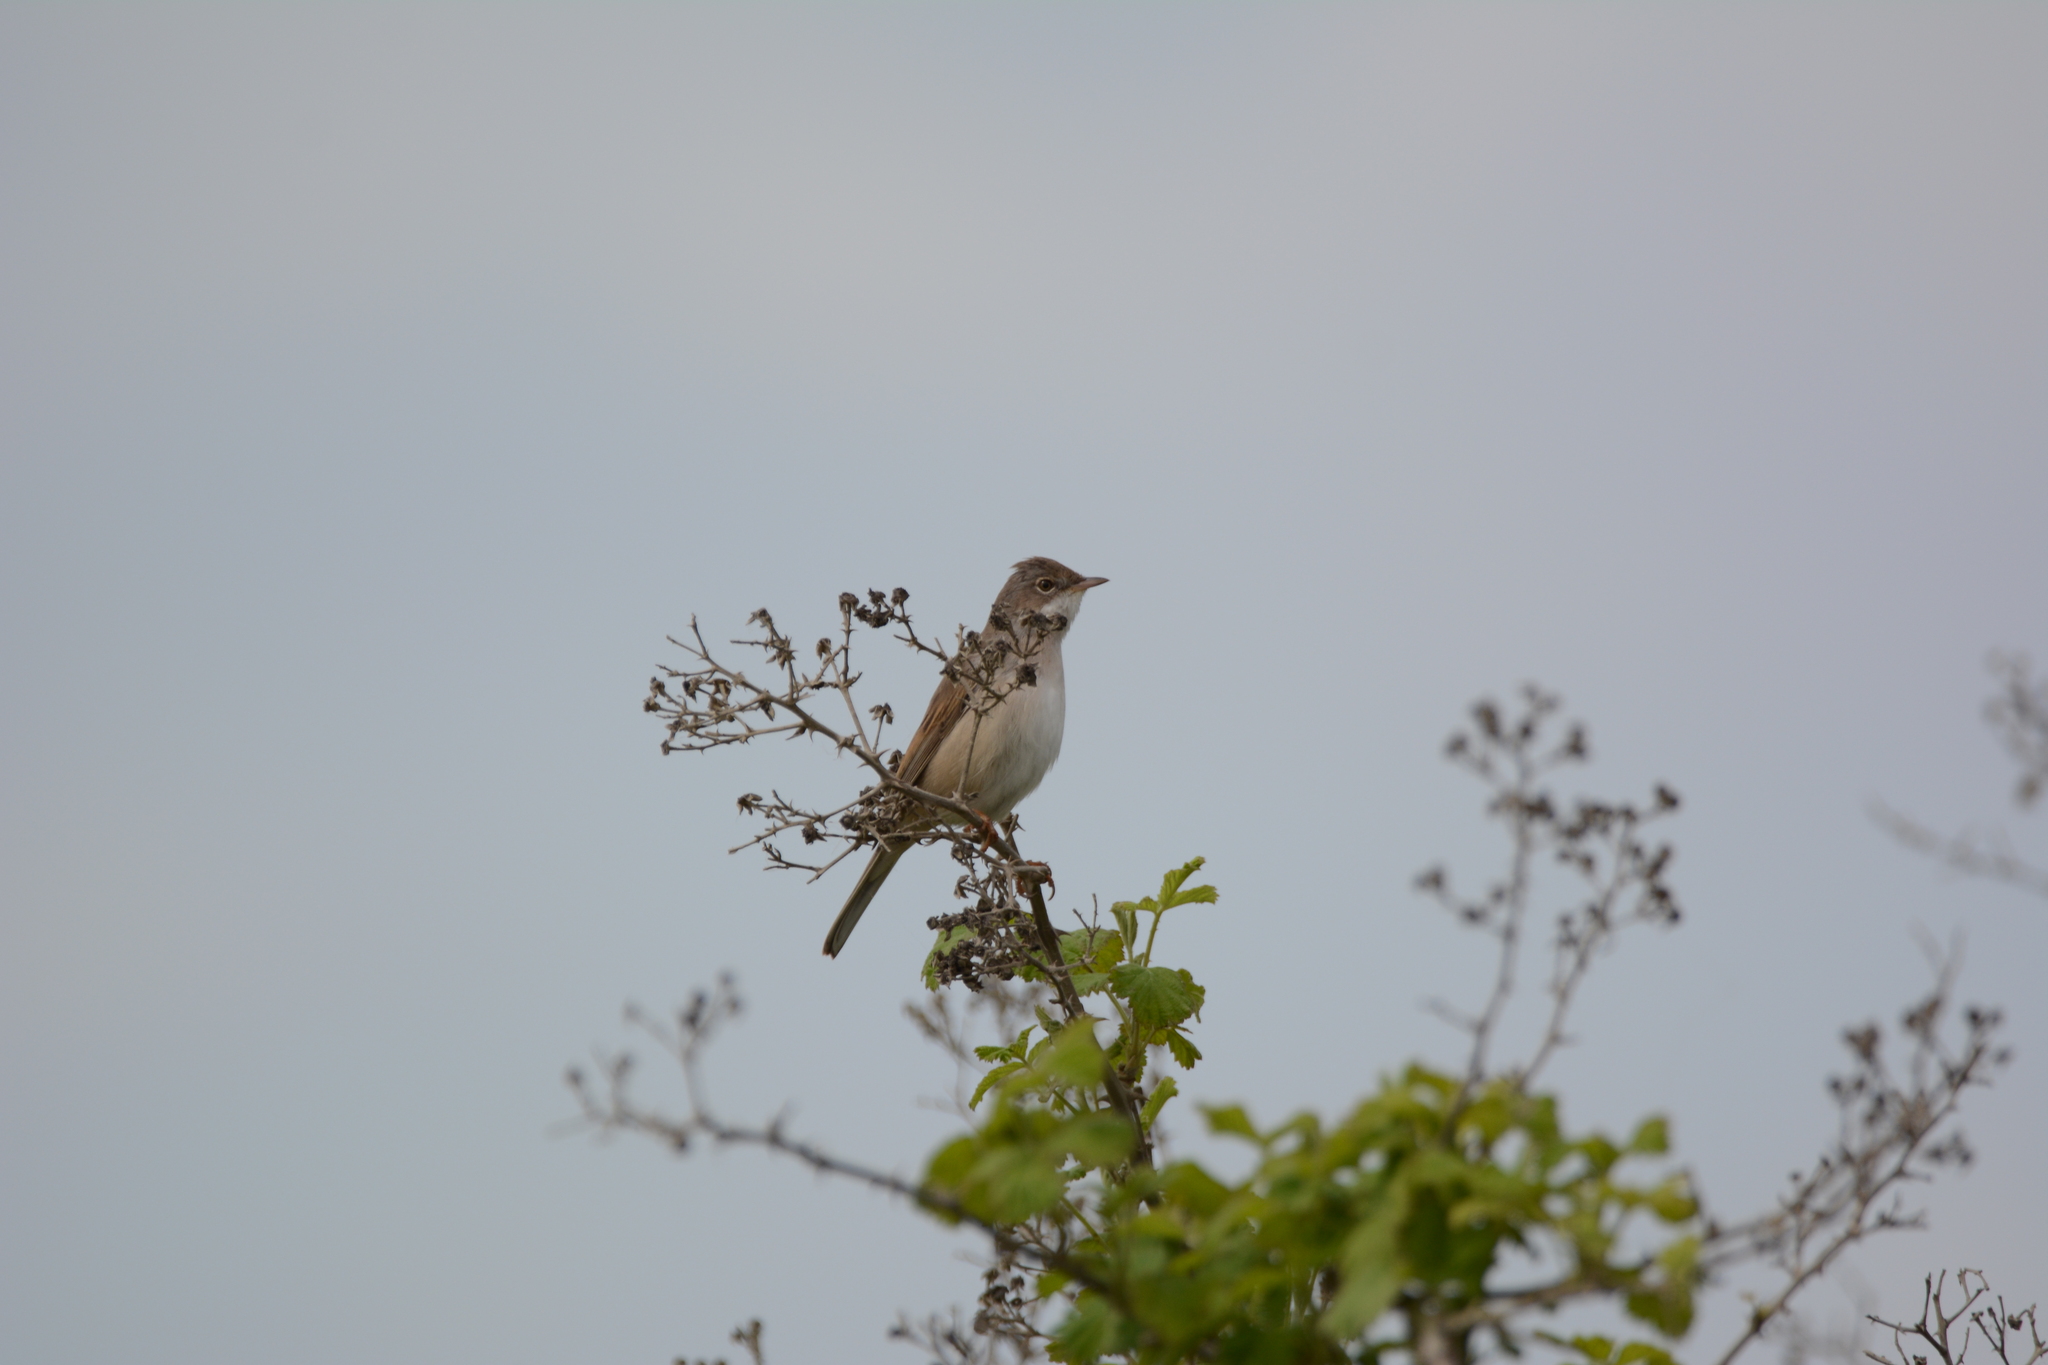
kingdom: Animalia
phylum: Chordata
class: Aves
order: Passeriformes
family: Sylviidae
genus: Sylvia
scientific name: Sylvia communis
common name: Common whitethroat
